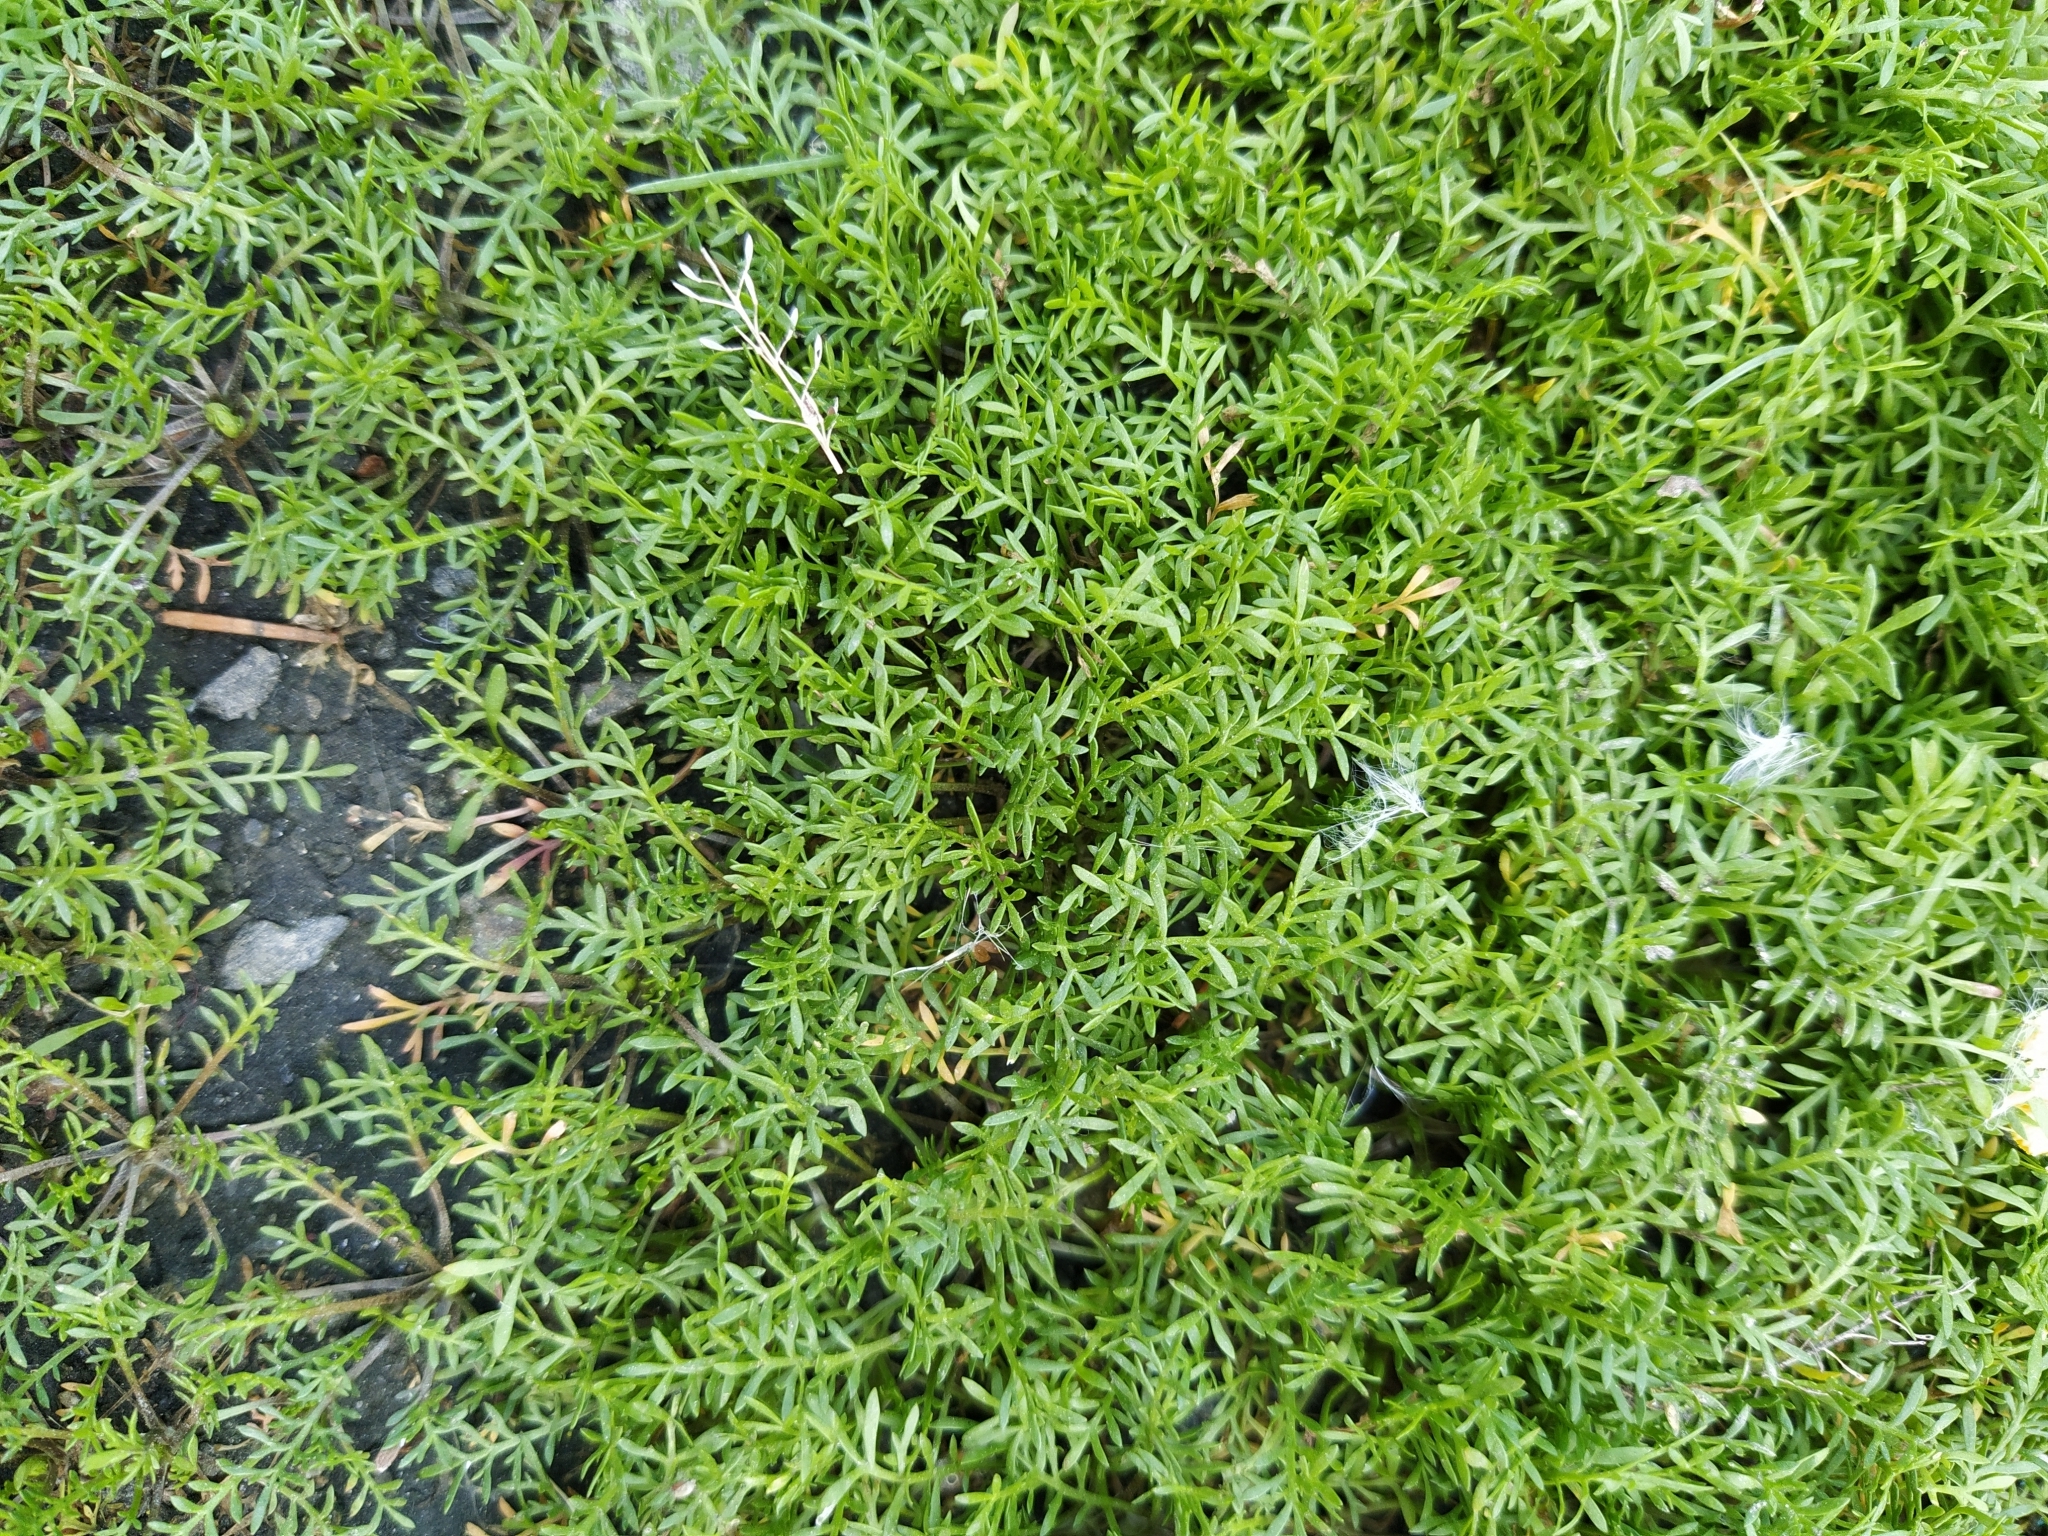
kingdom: Plantae
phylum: Tracheophyta
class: Magnoliopsida
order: Asterales
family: Asteraceae
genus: Matricaria
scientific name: Matricaria discoidea
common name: Disc mayweed
